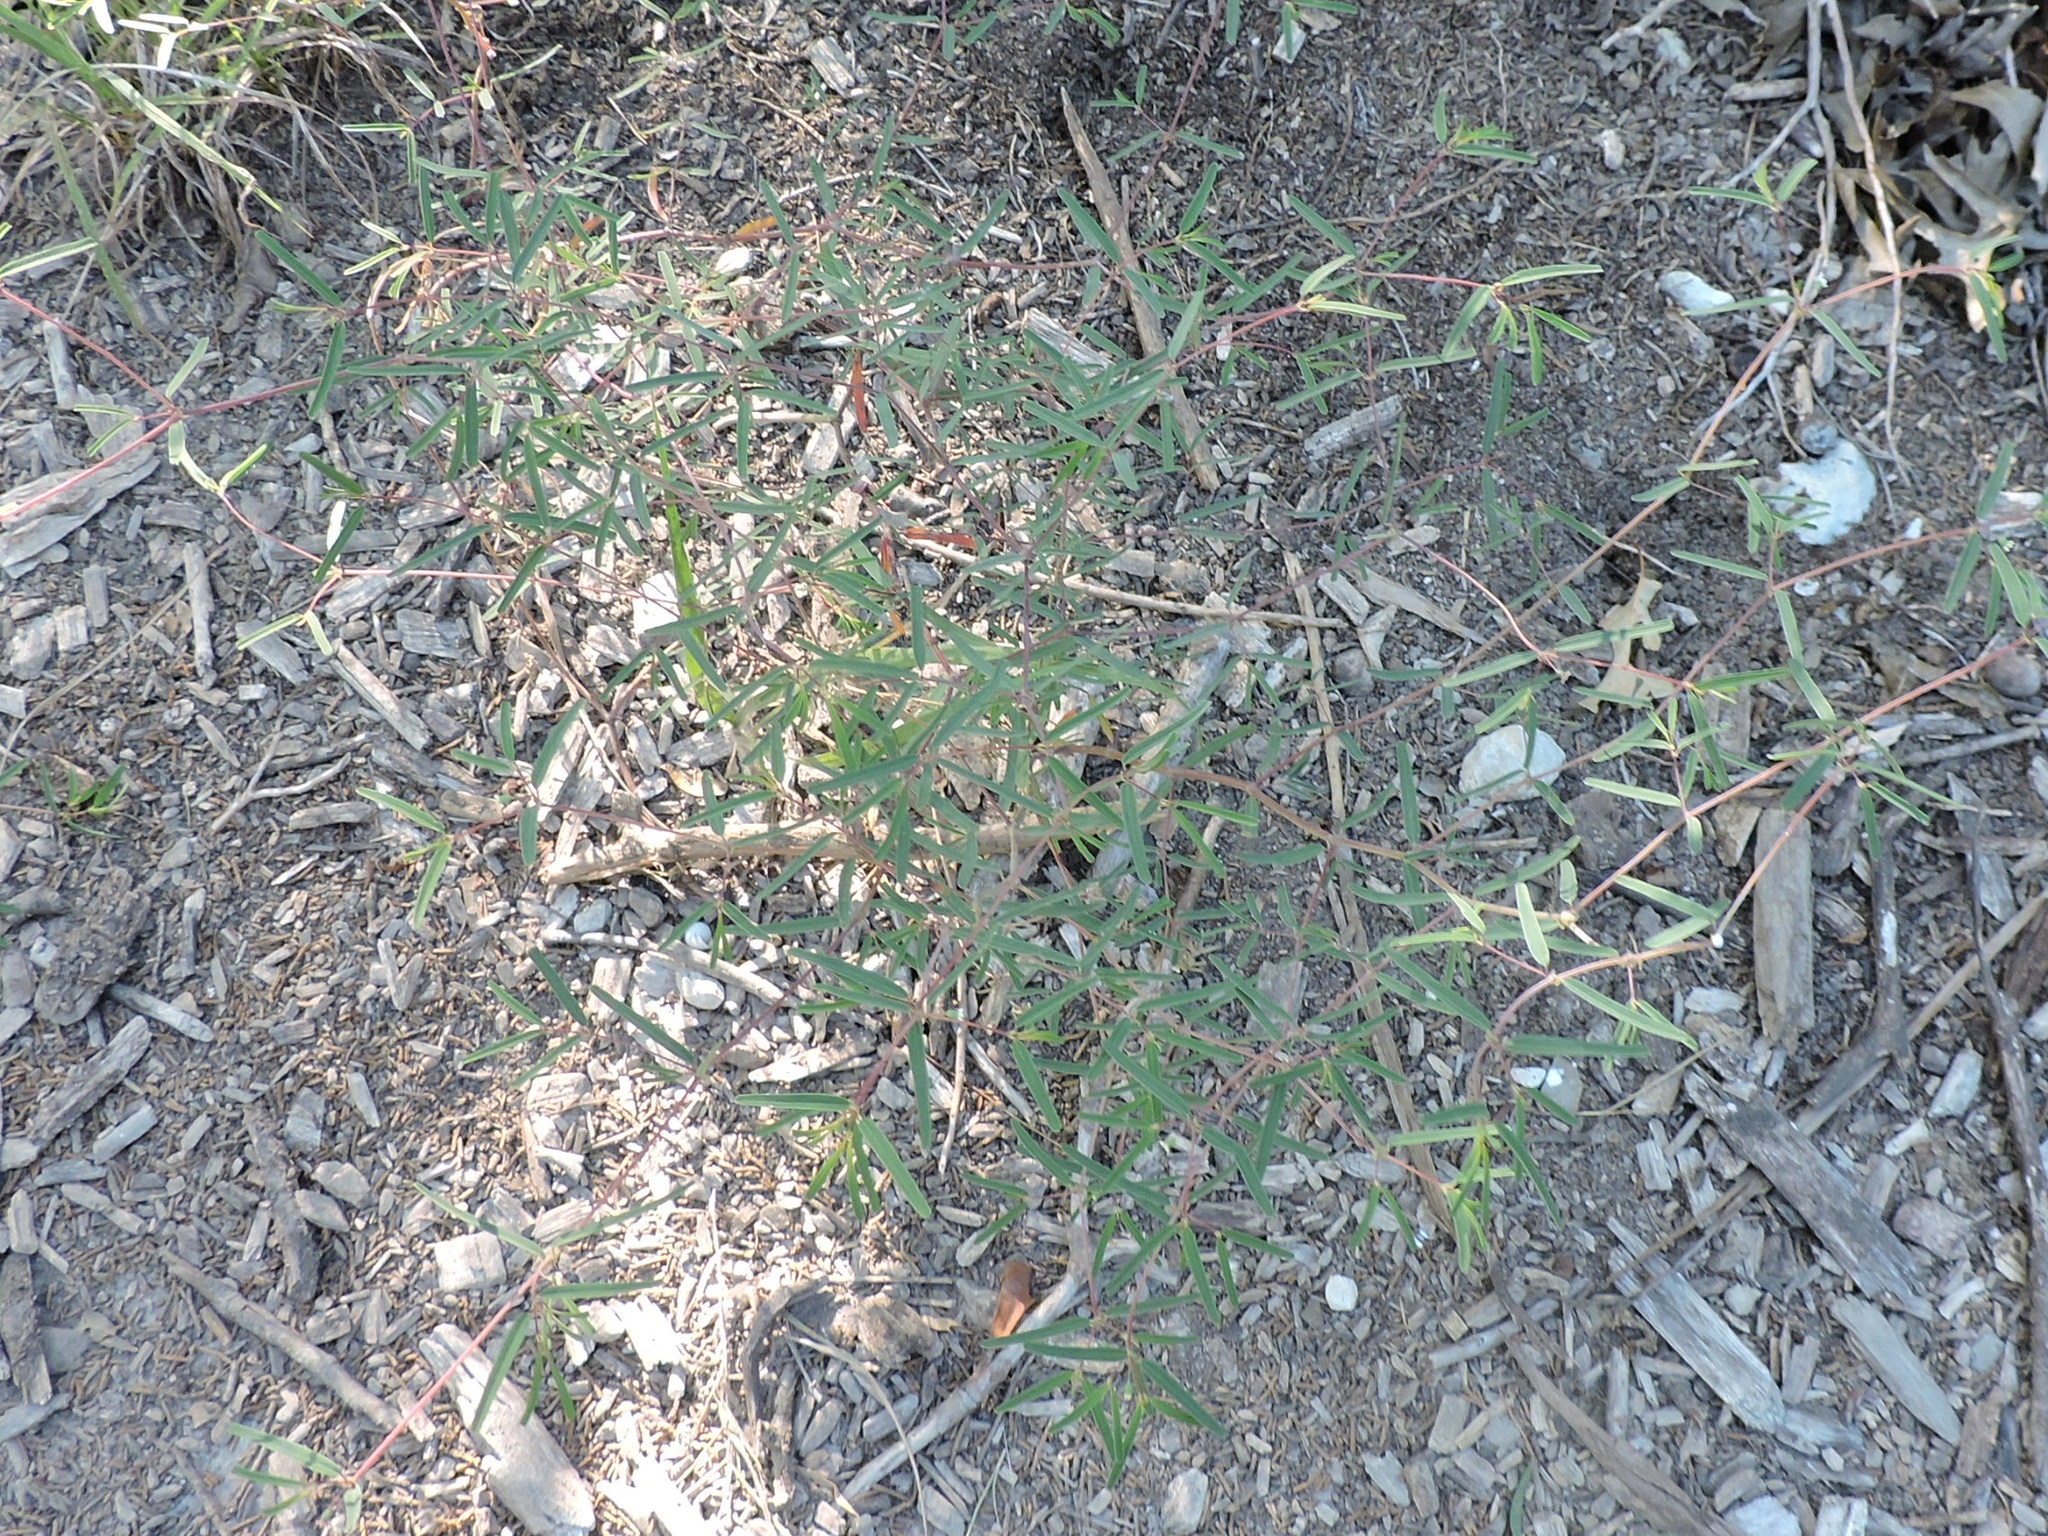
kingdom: Plantae
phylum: Tracheophyta
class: Magnoliopsida
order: Malpighiales
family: Euphorbiaceae
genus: Euphorbia
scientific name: Euphorbia missurica
